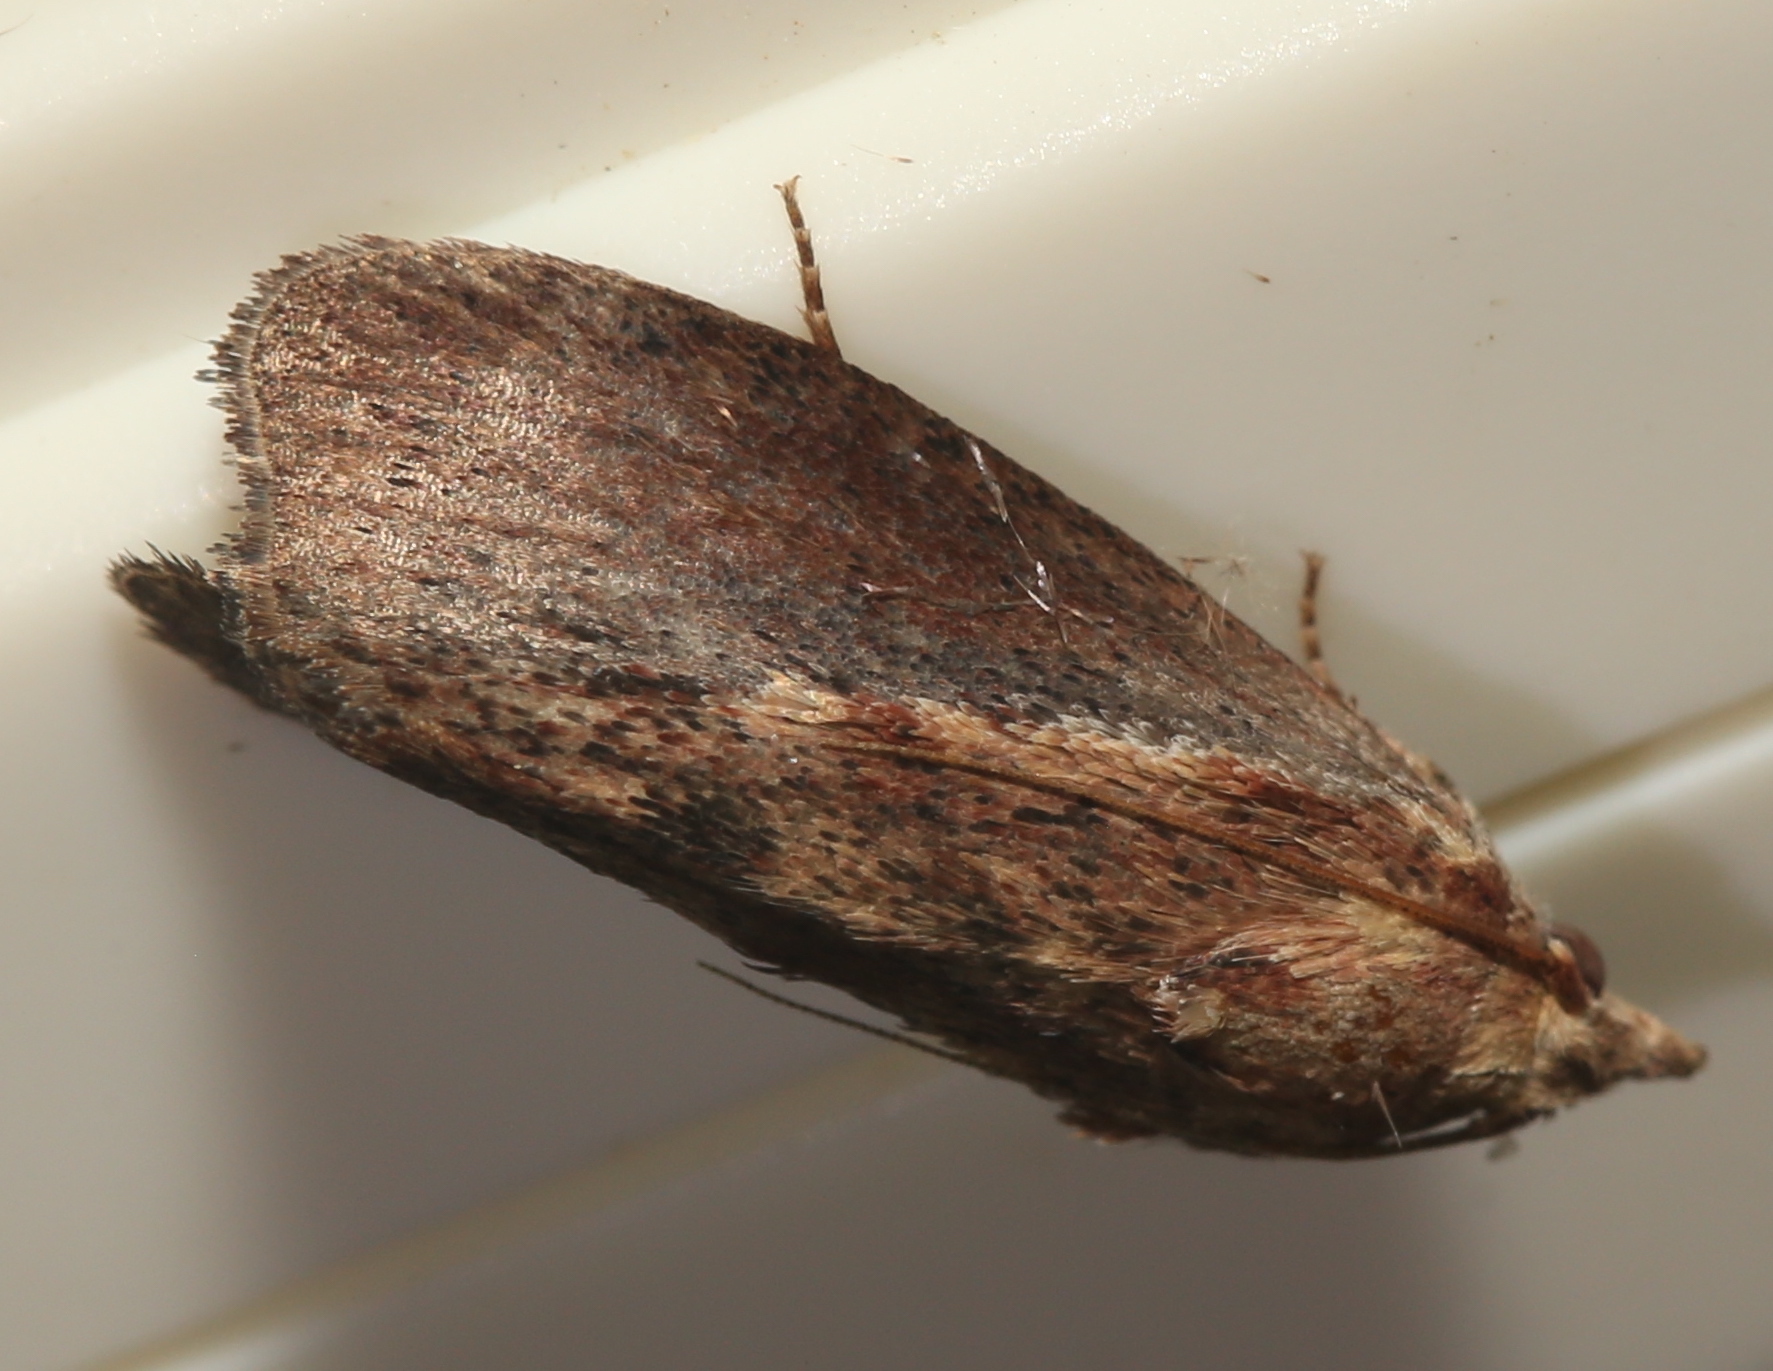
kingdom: Animalia
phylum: Arthropoda
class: Insecta
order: Lepidoptera
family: Pyralidae
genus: Galleria
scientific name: Galleria mellonella
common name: Greater wax moth
